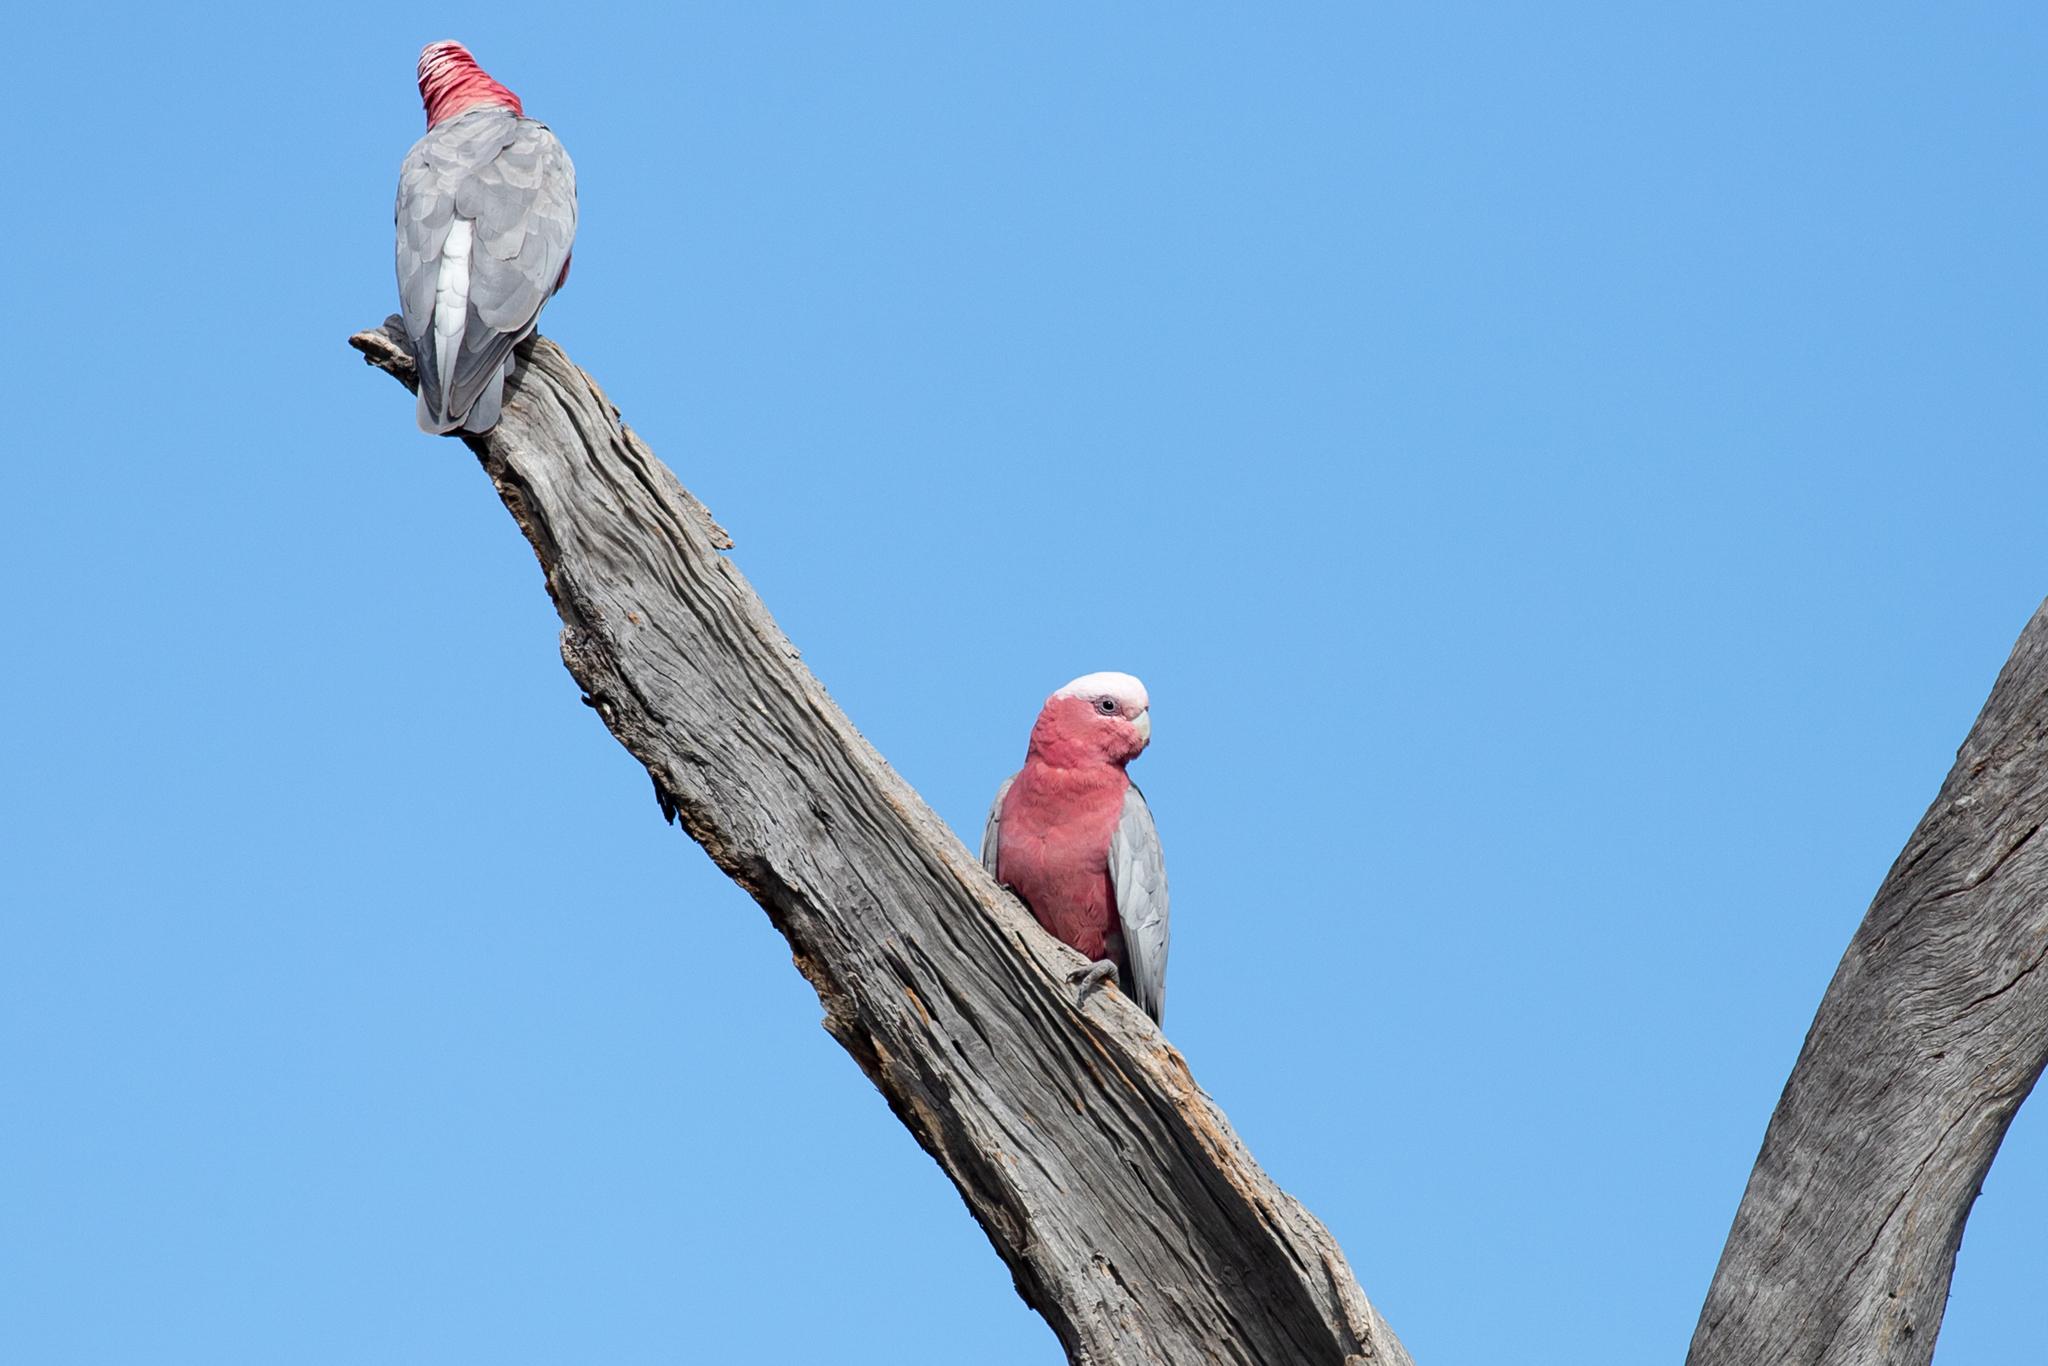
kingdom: Animalia
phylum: Chordata
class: Aves
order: Psittaciformes
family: Psittacidae
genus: Eolophus
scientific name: Eolophus roseicapilla
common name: Galah
